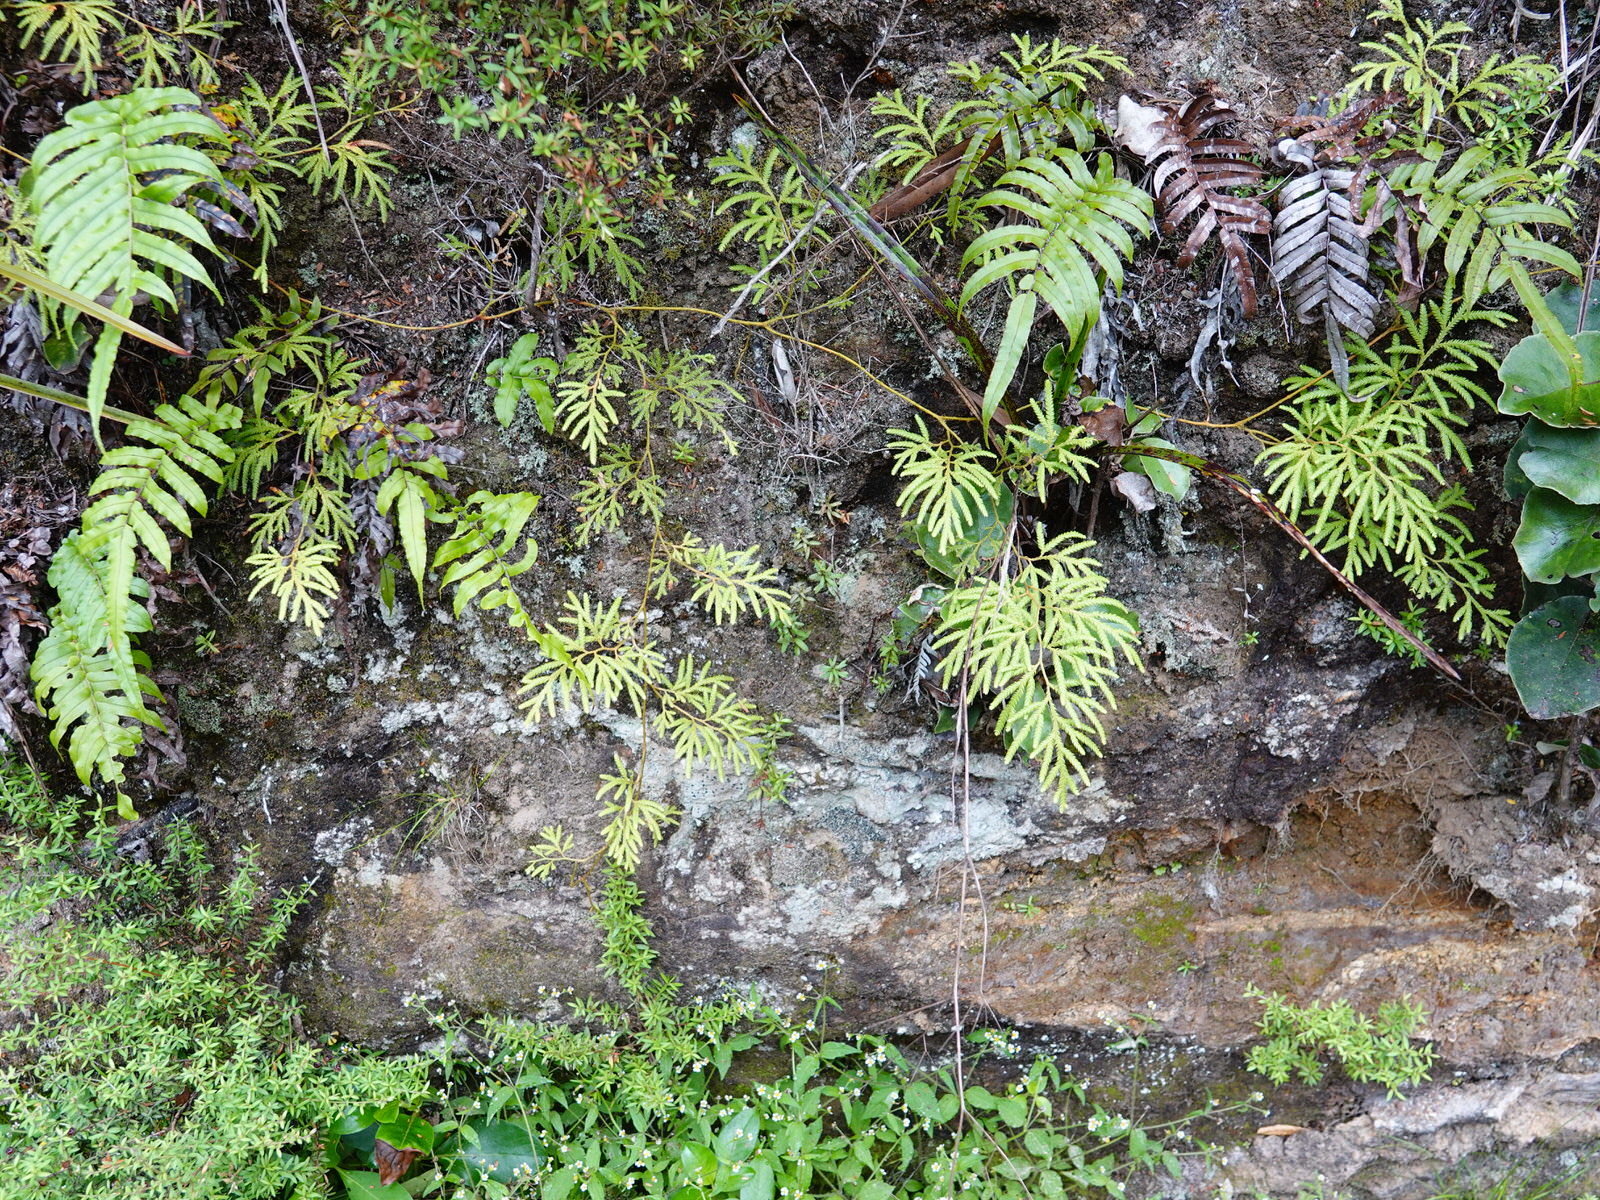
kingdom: Plantae
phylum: Tracheophyta
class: Lycopodiopsida
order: Lycopodiales
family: Lycopodiaceae
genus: Lycopodium
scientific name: Lycopodium volubile
